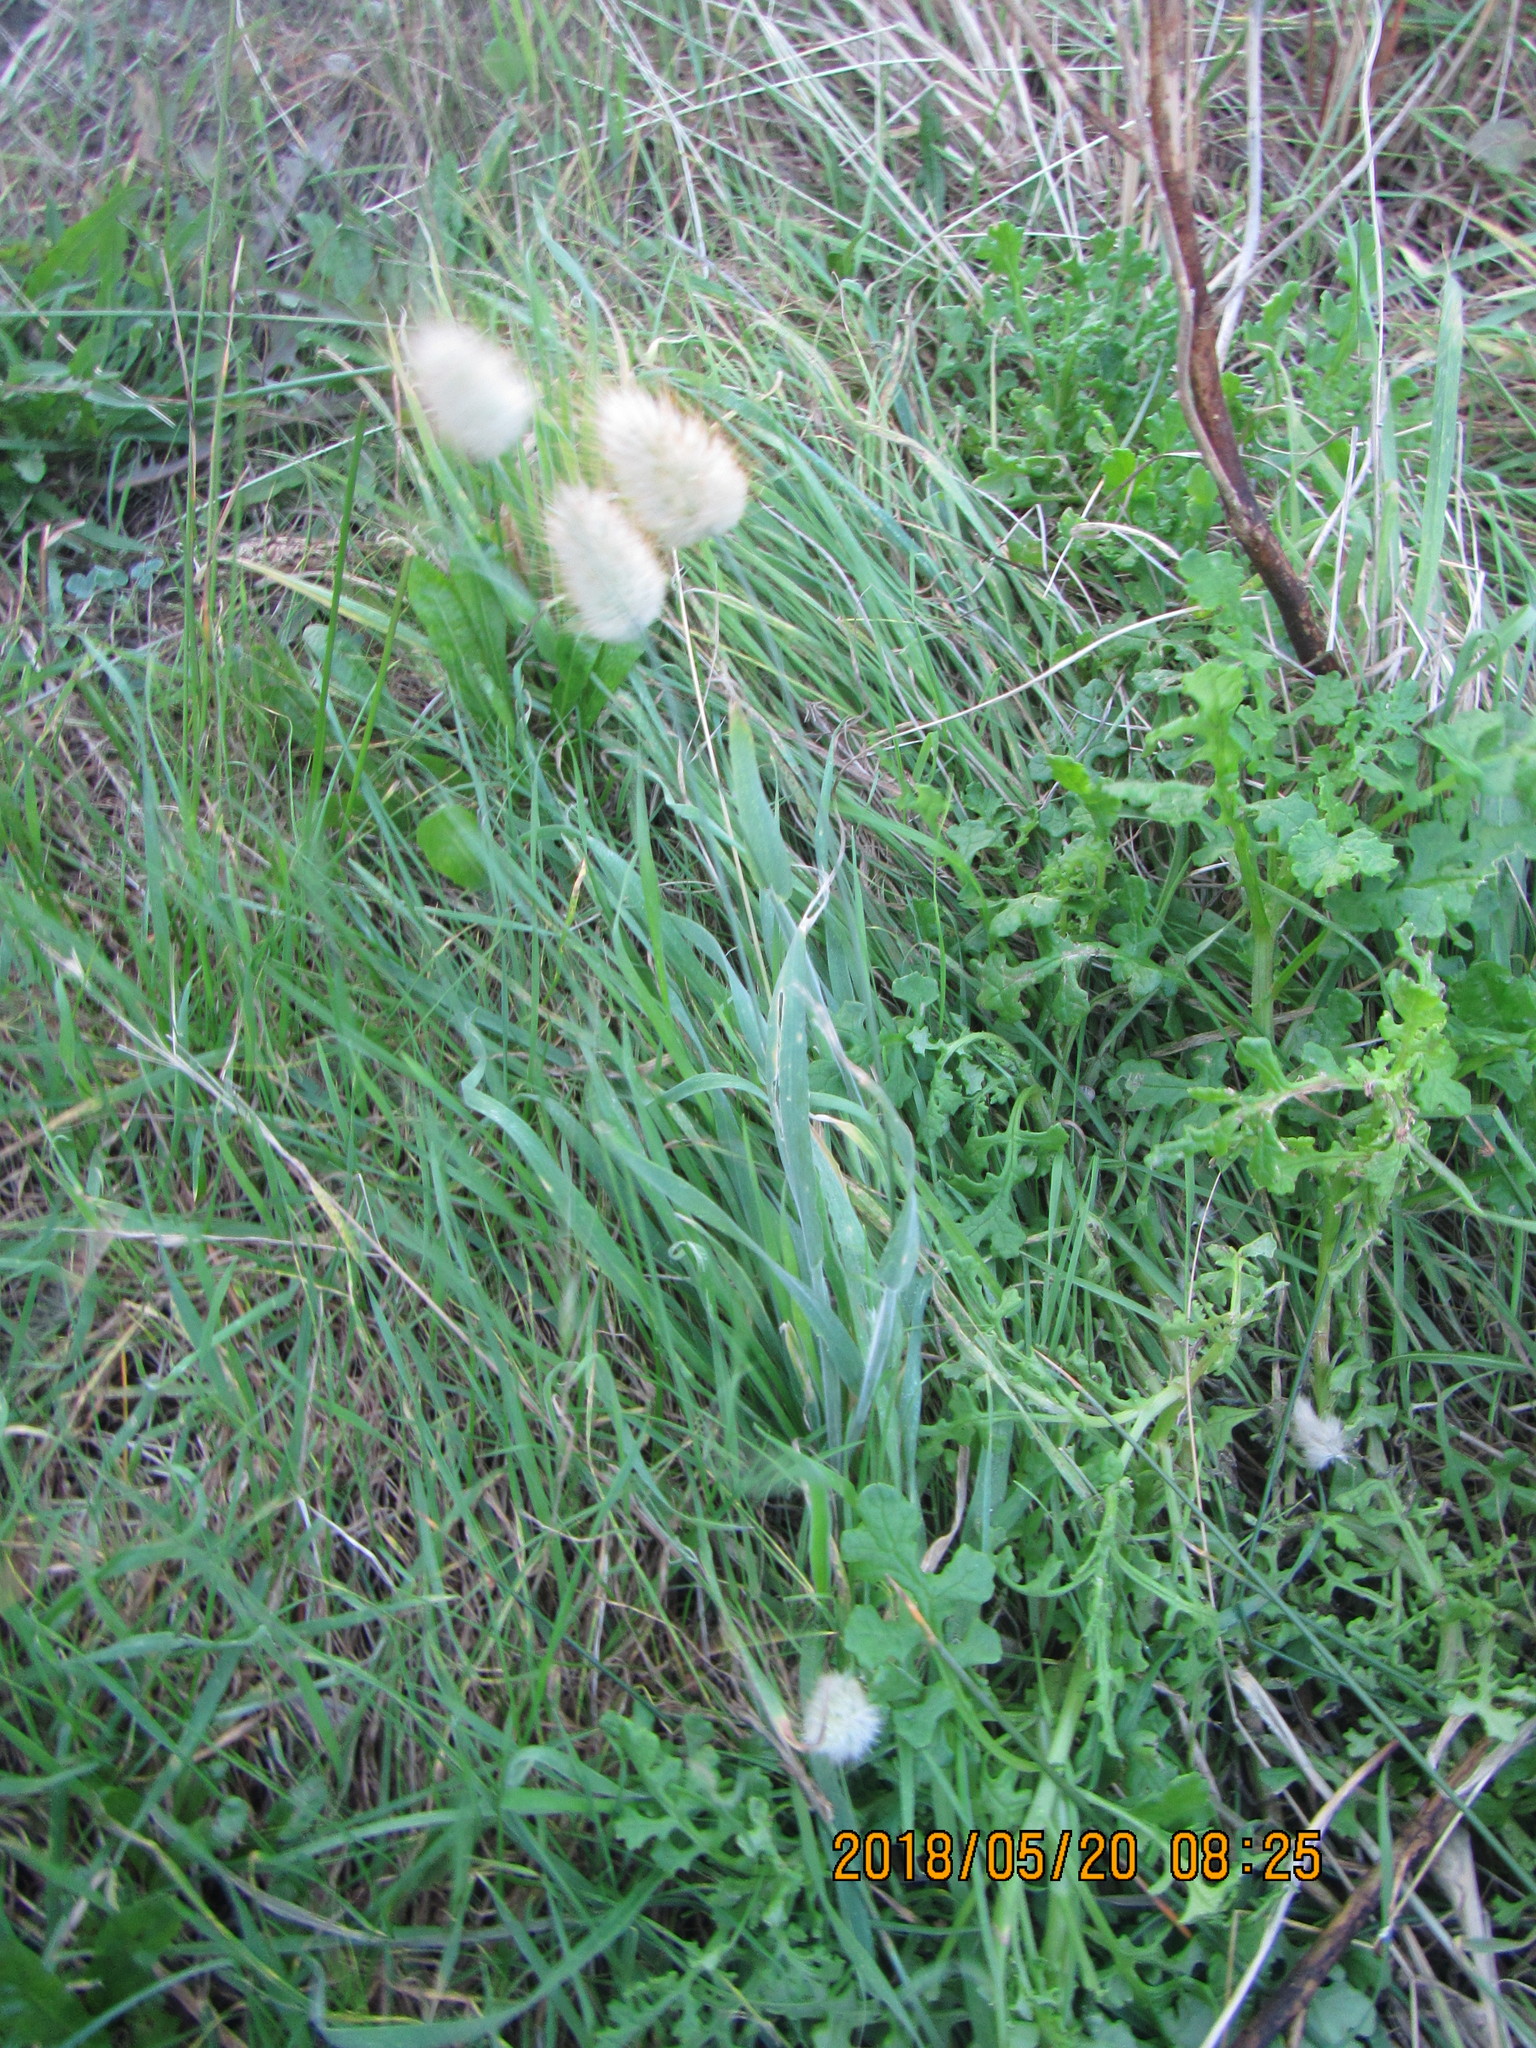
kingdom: Plantae
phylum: Tracheophyta
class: Liliopsida
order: Poales
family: Poaceae
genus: Lagurus
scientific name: Lagurus ovatus
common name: Hare's-tail
